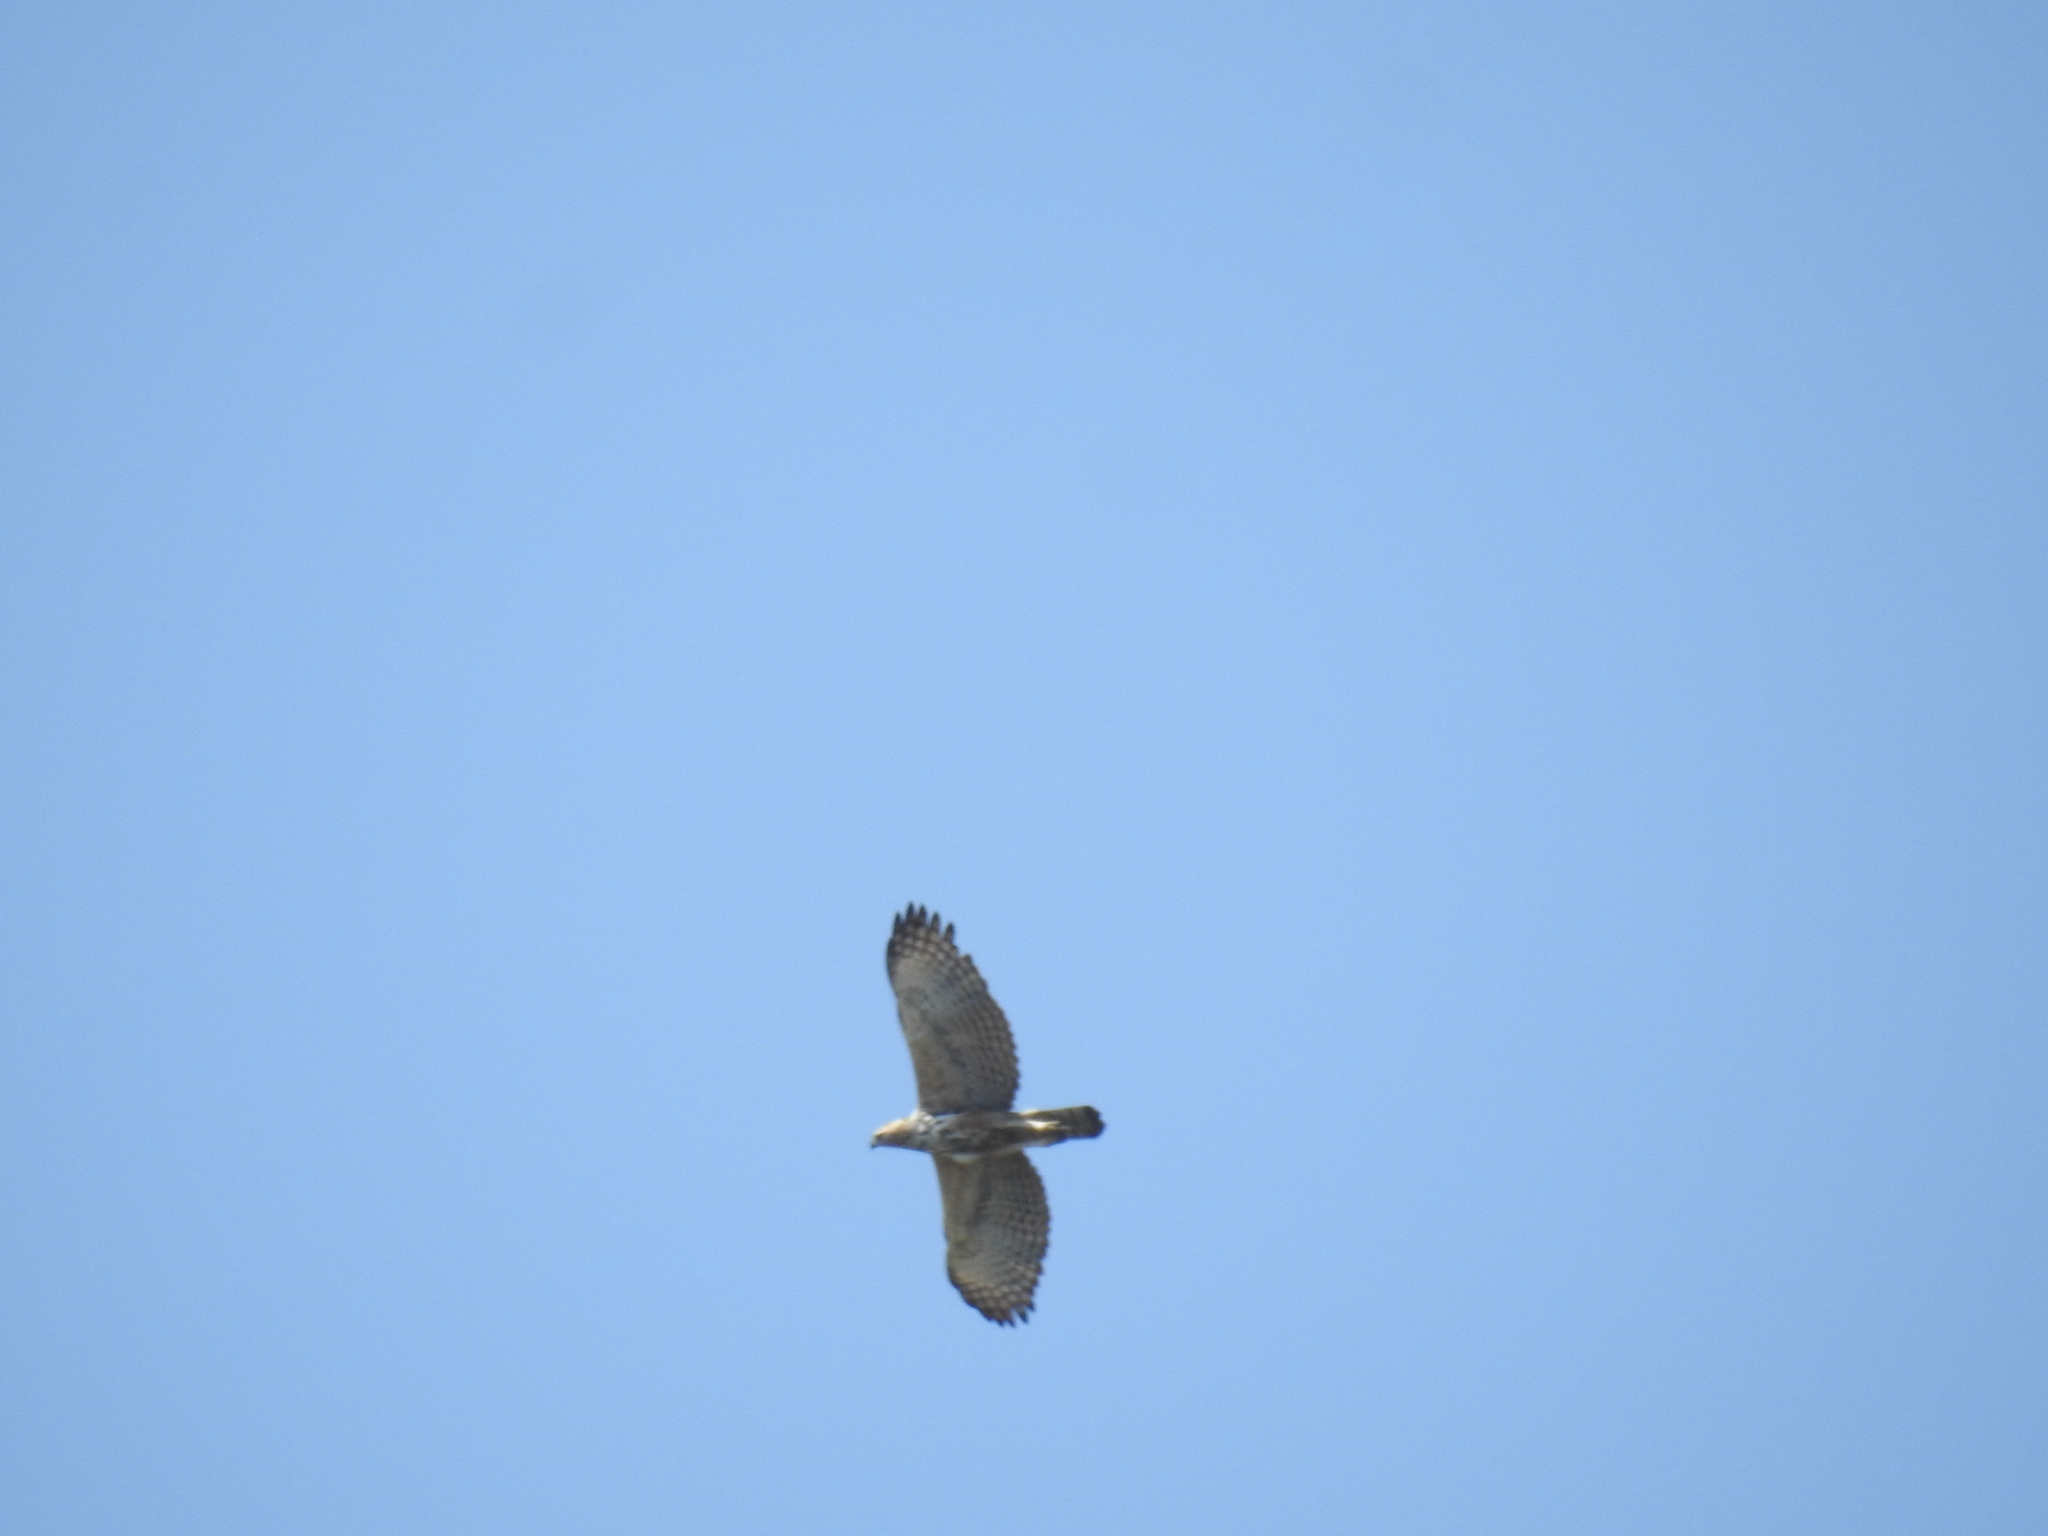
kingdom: Animalia
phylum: Chordata
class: Aves
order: Accipitriformes
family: Accipitridae
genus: Nisaetus
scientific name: Nisaetus cirrhatus
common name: Changeable hawk-eagle
